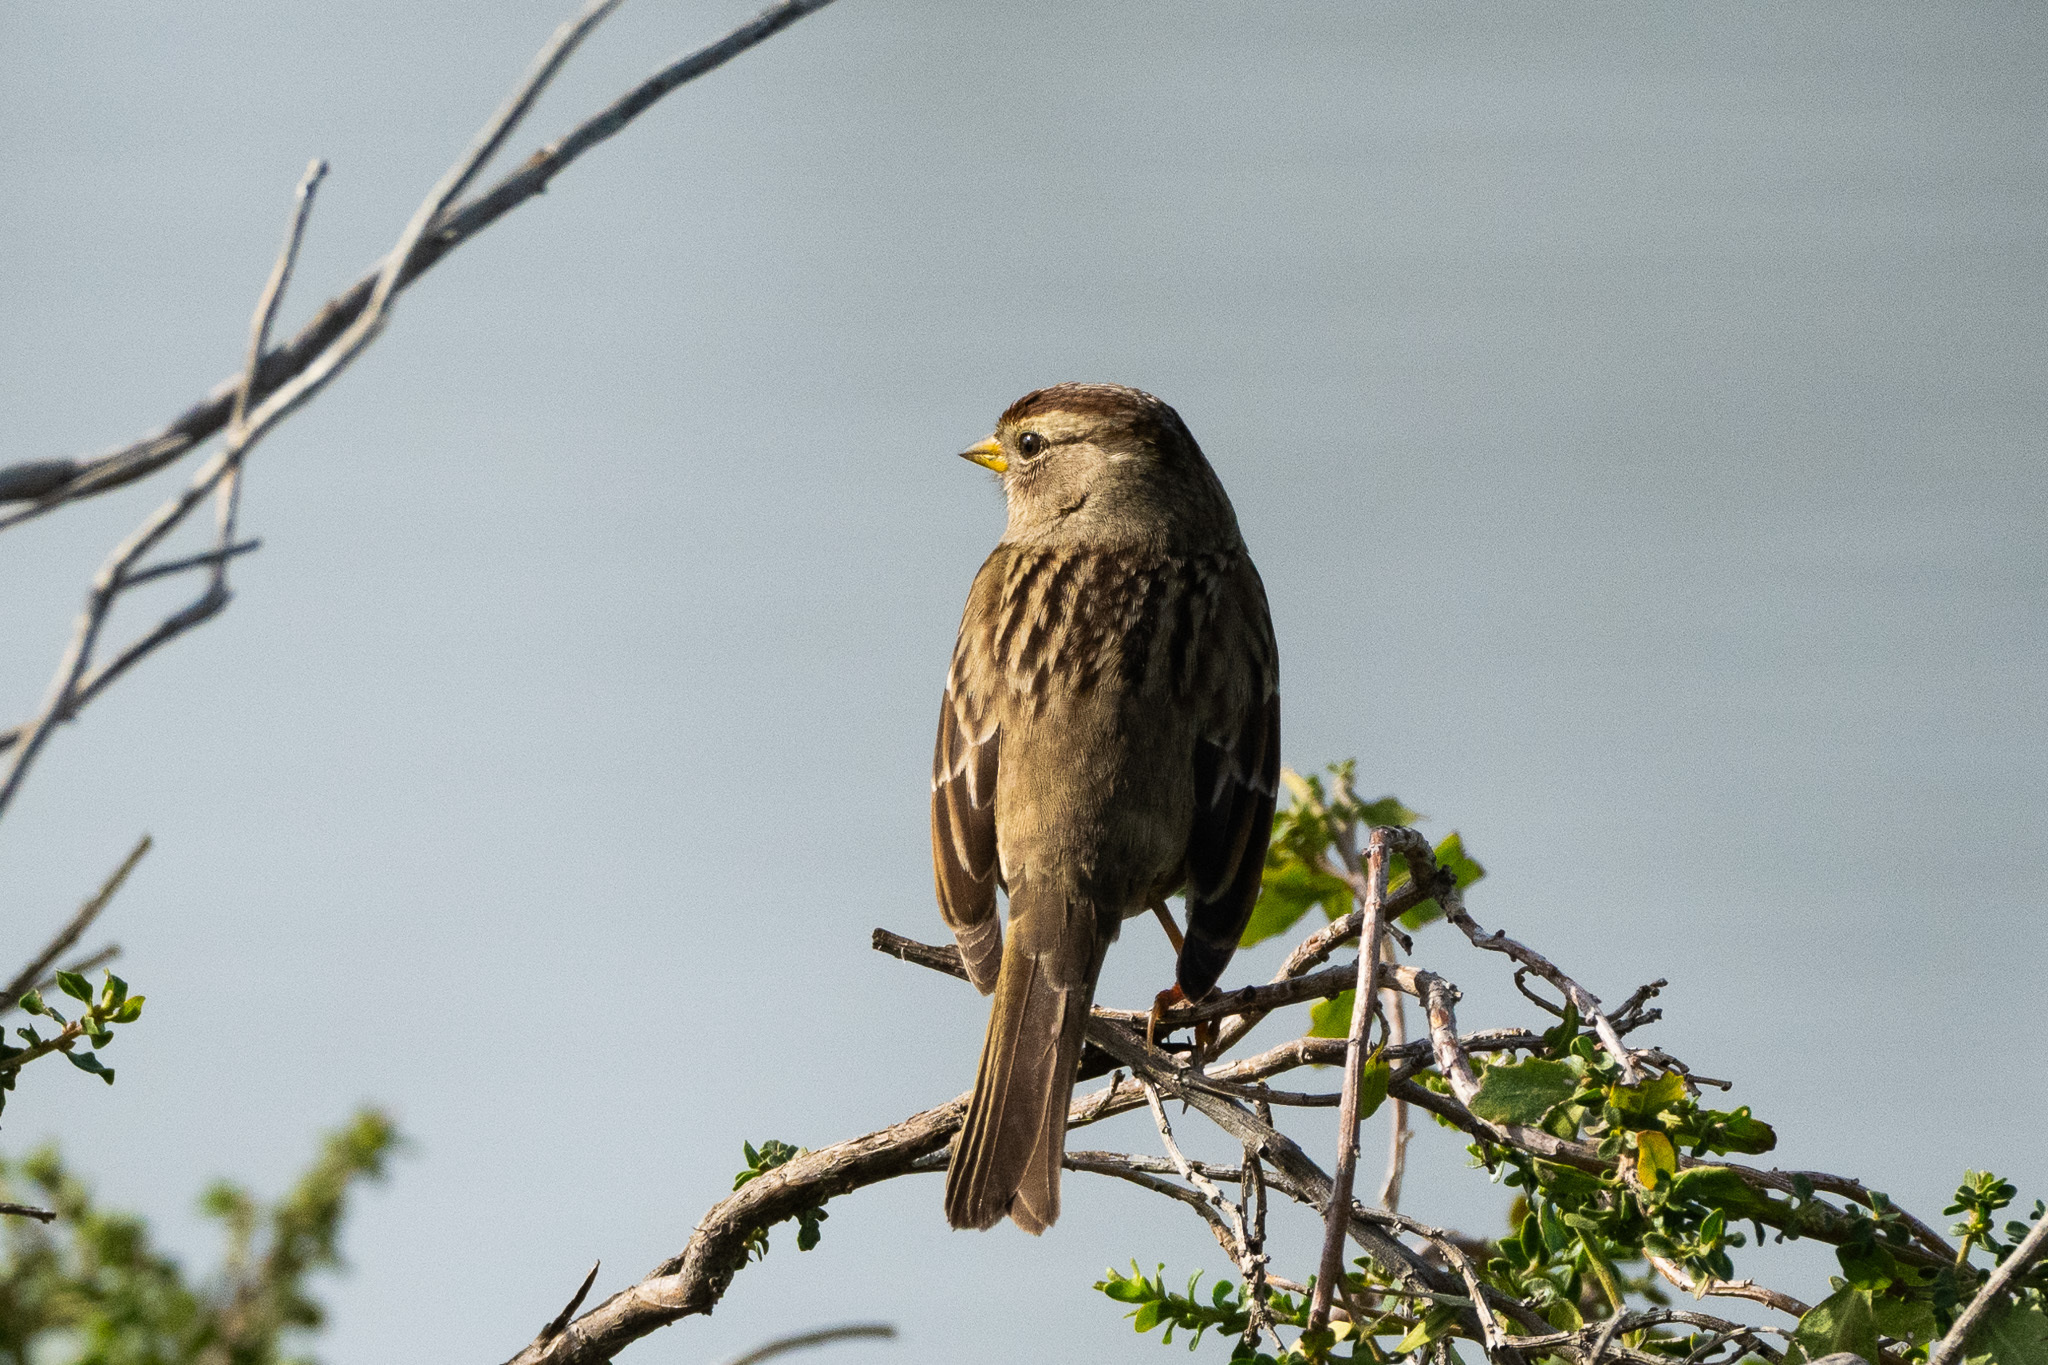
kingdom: Animalia
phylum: Chordata
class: Aves
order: Passeriformes
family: Passerellidae
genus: Zonotrichia
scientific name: Zonotrichia leucophrys
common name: White-crowned sparrow
